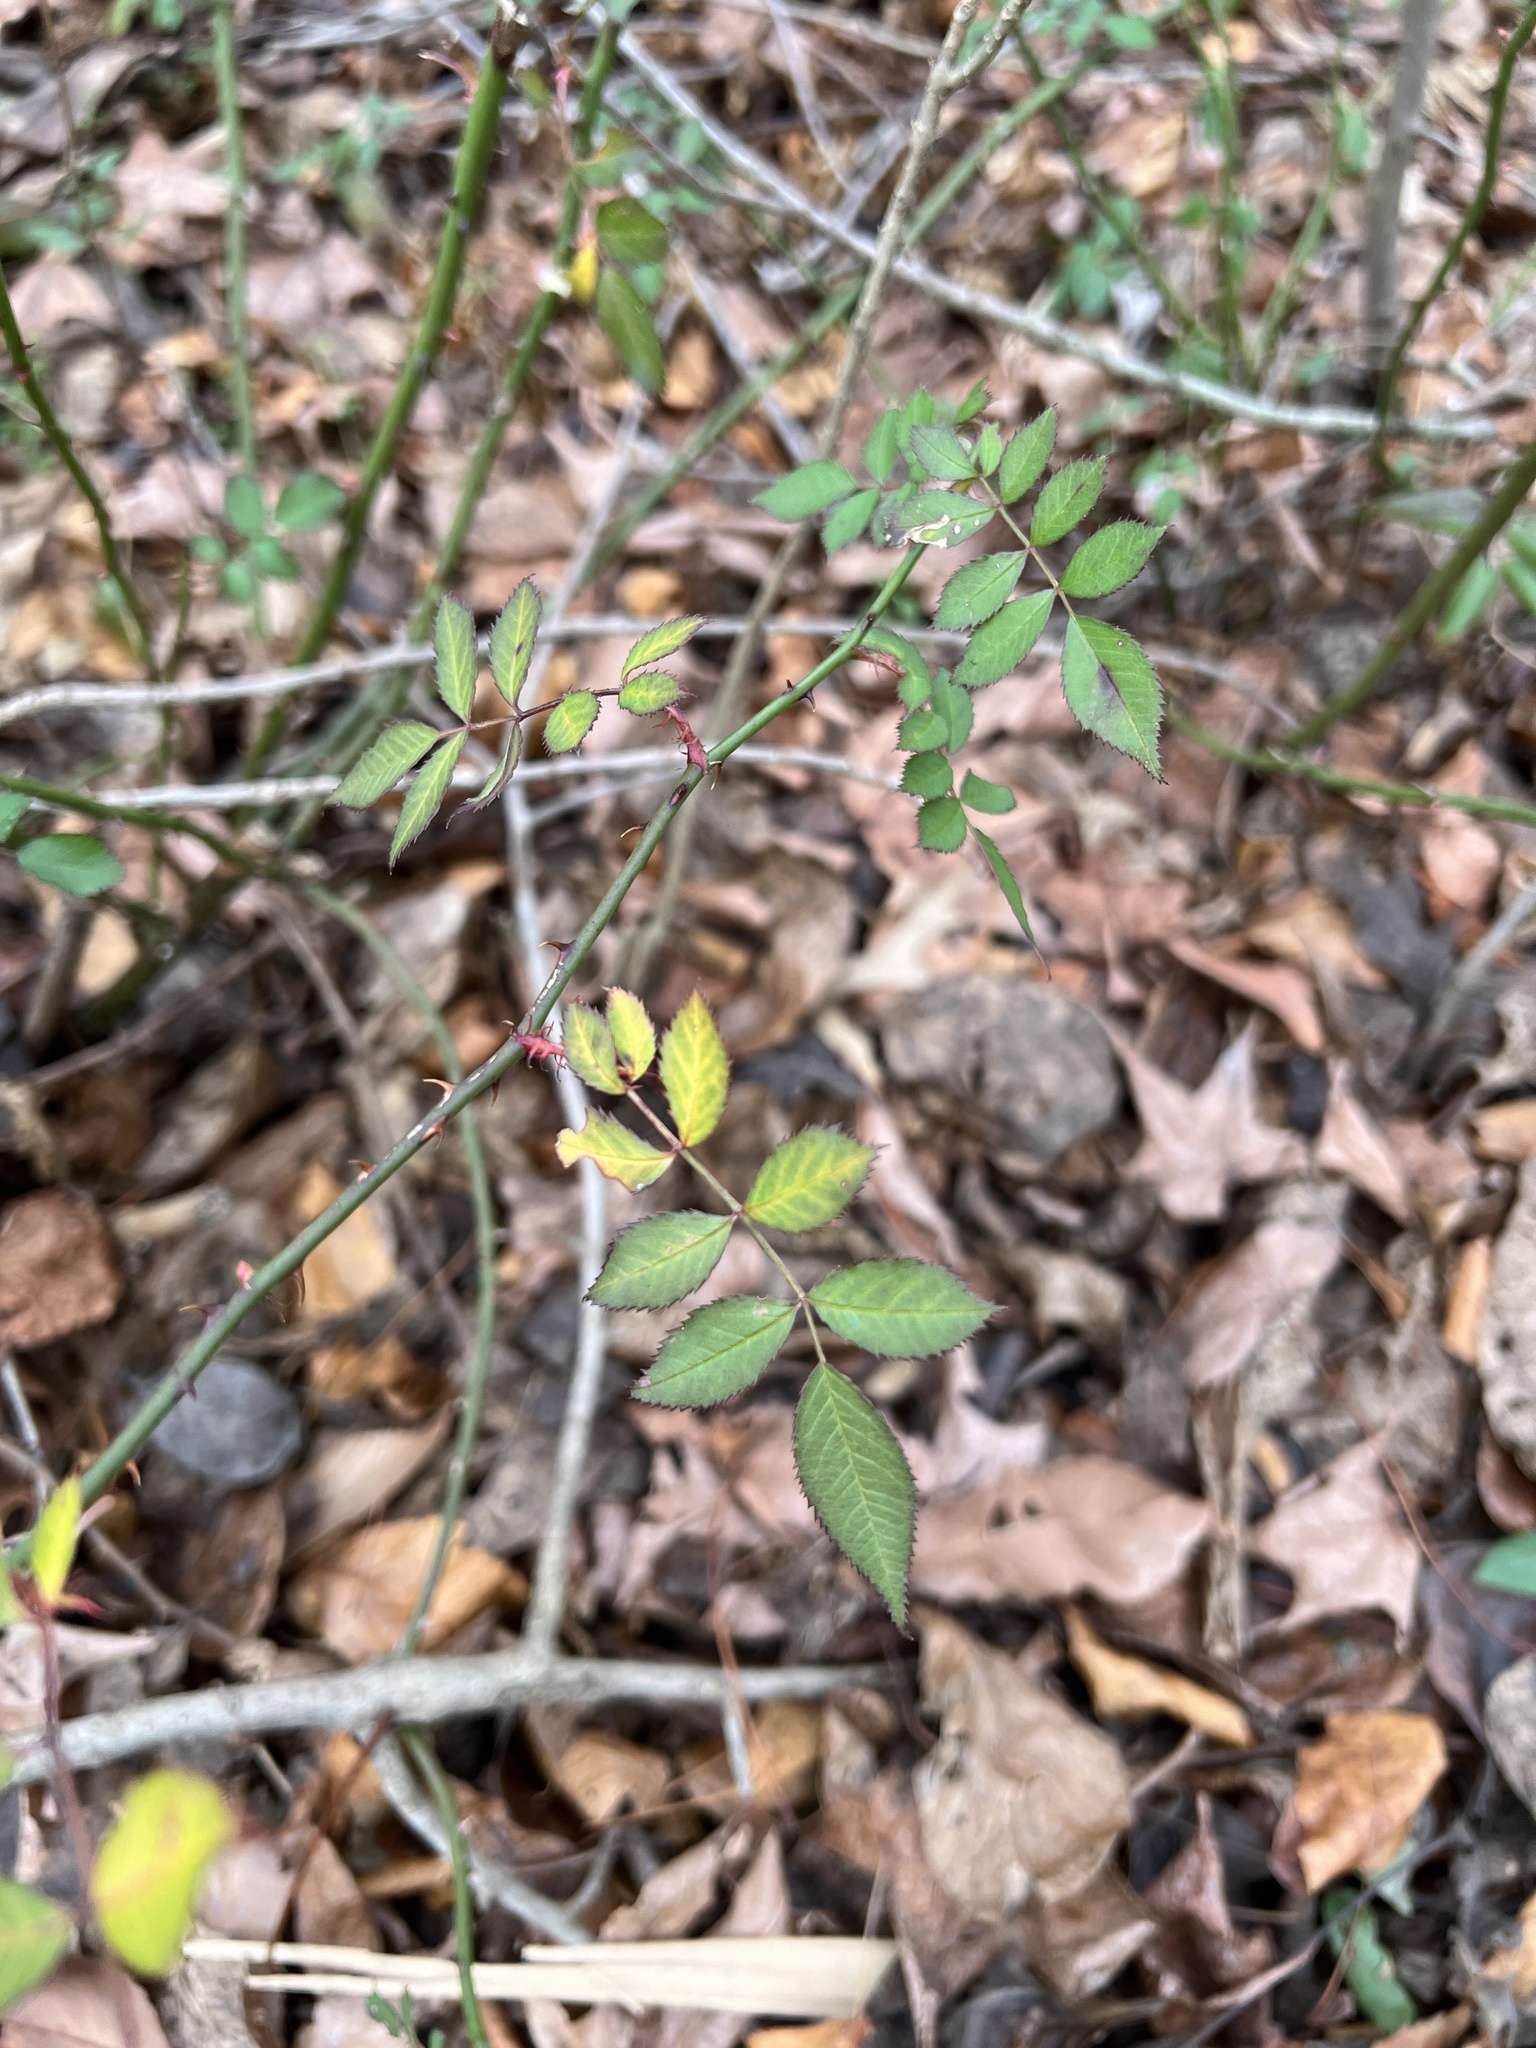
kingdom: Plantae
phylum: Tracheophyta
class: Magnoliopsida
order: Rosales
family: Rosaceae
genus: Rosa
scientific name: Rosa multiflora
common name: Multiflora rose
